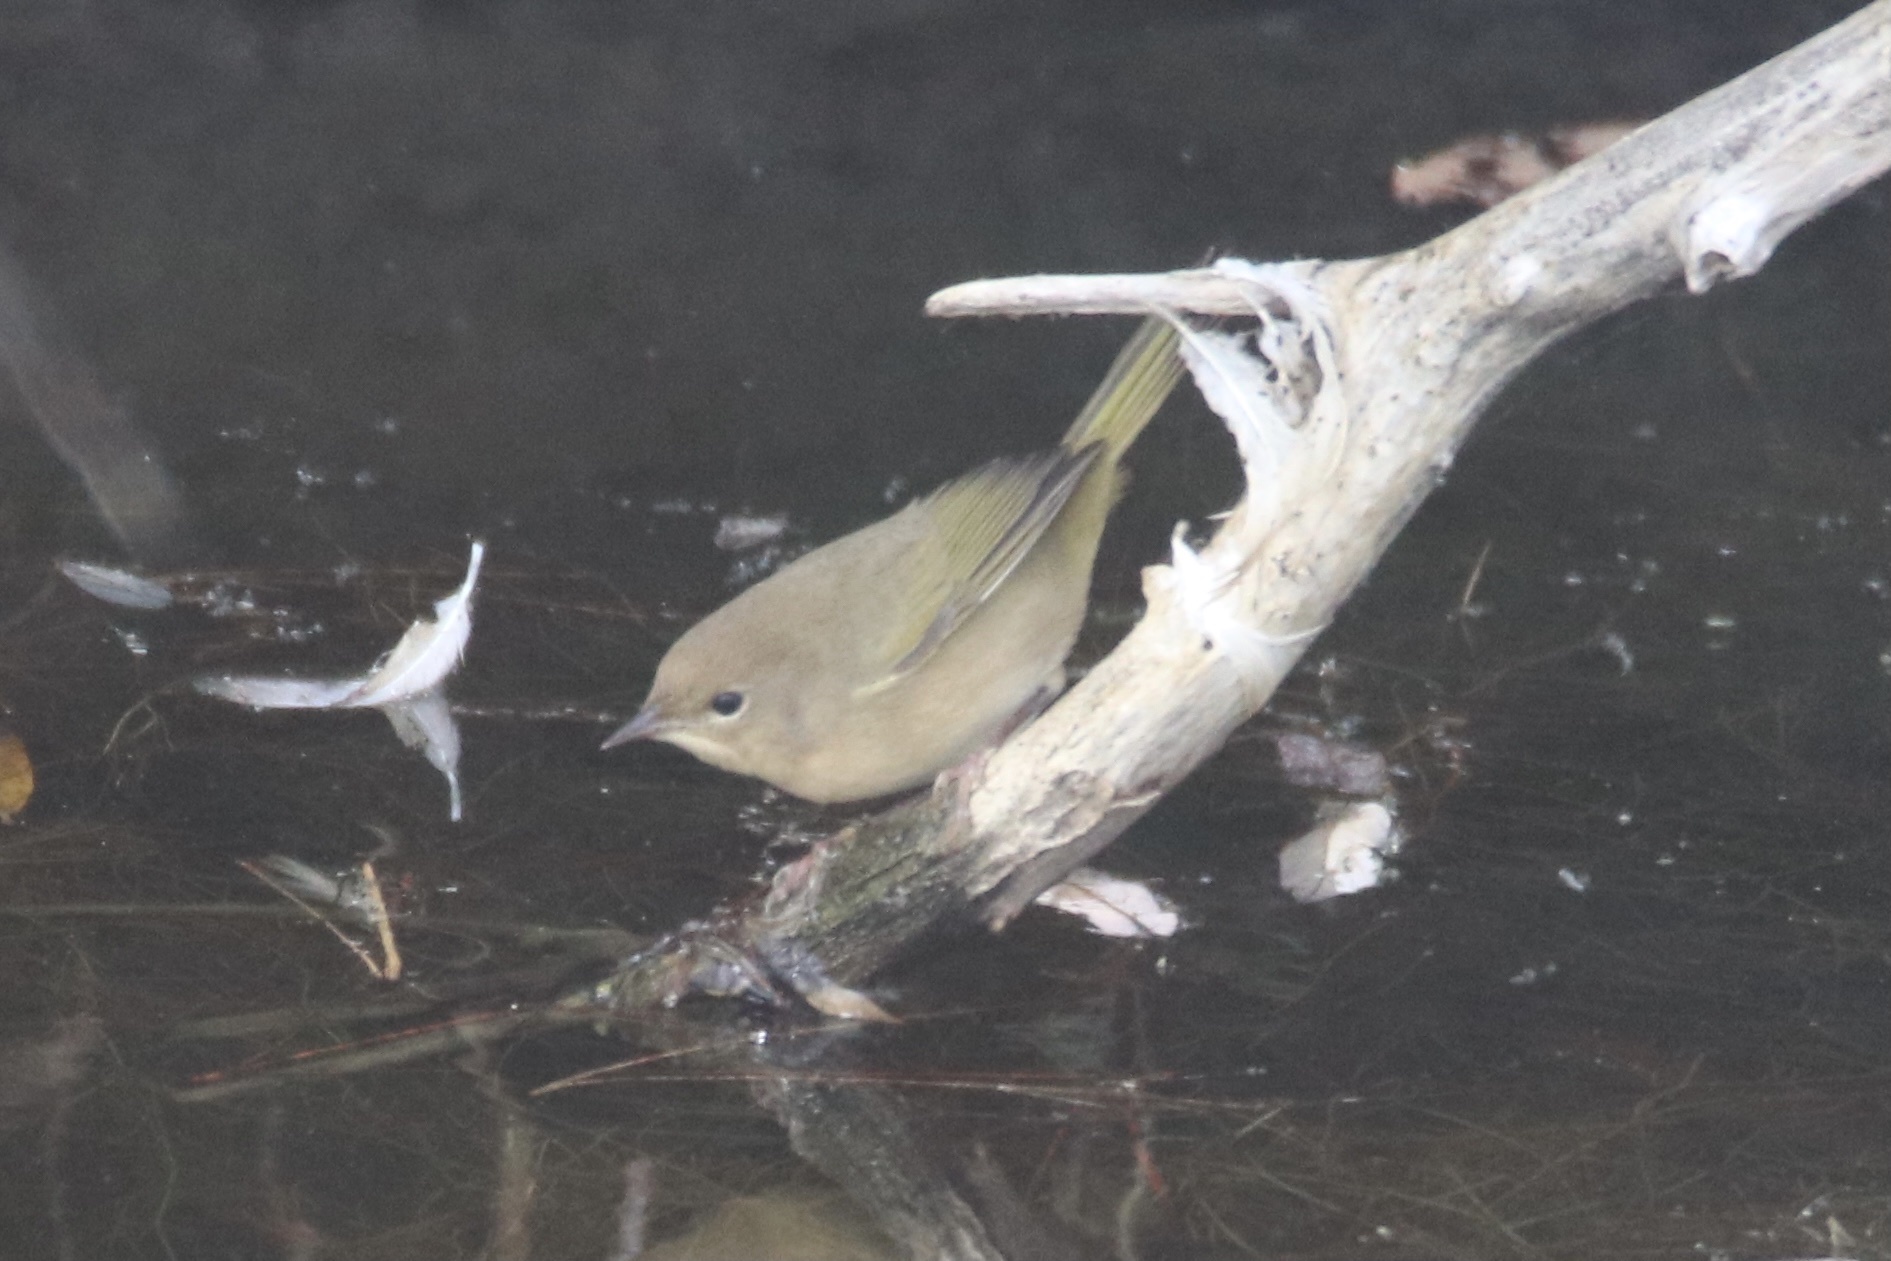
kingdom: Animalia
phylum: Chordata
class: Aves
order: Passeriformes
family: Parulidae
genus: Geothlypis
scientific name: Geothlypis trichas
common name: Common yellowthroat
